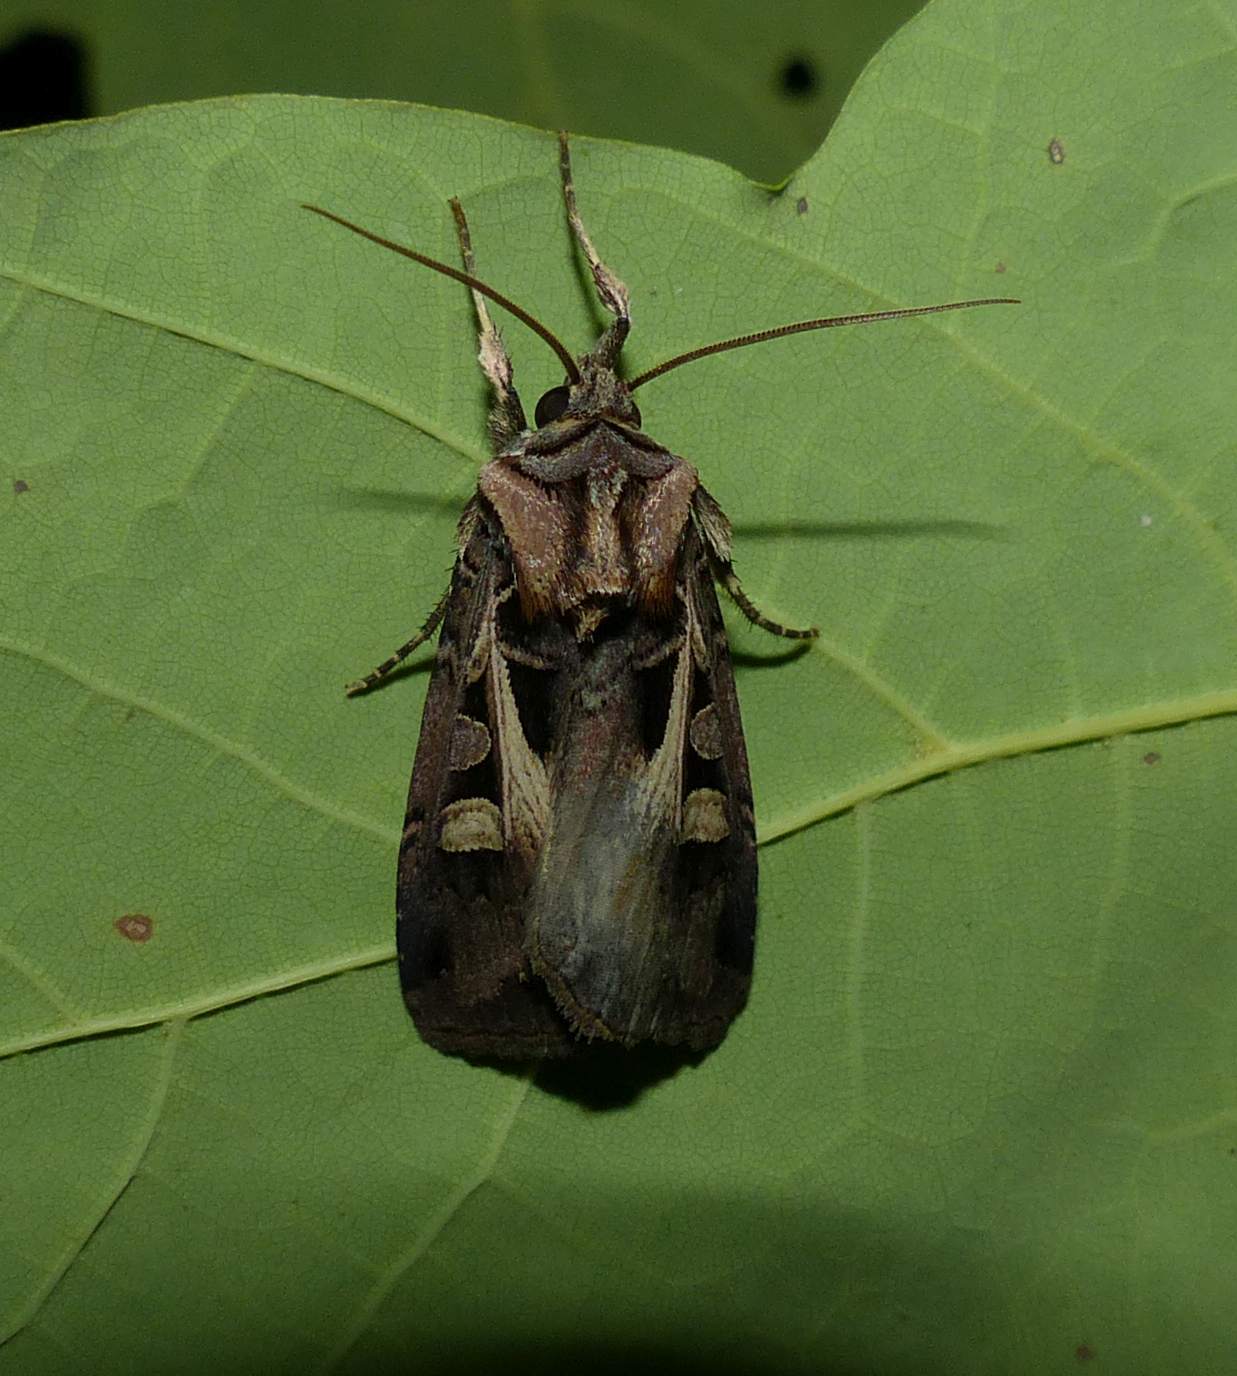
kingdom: Animalia
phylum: Arthropoda
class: Insecta
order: Lepidoptera
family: Noctuidae
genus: Feltia
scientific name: Feltia herilis
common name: Master's dart
